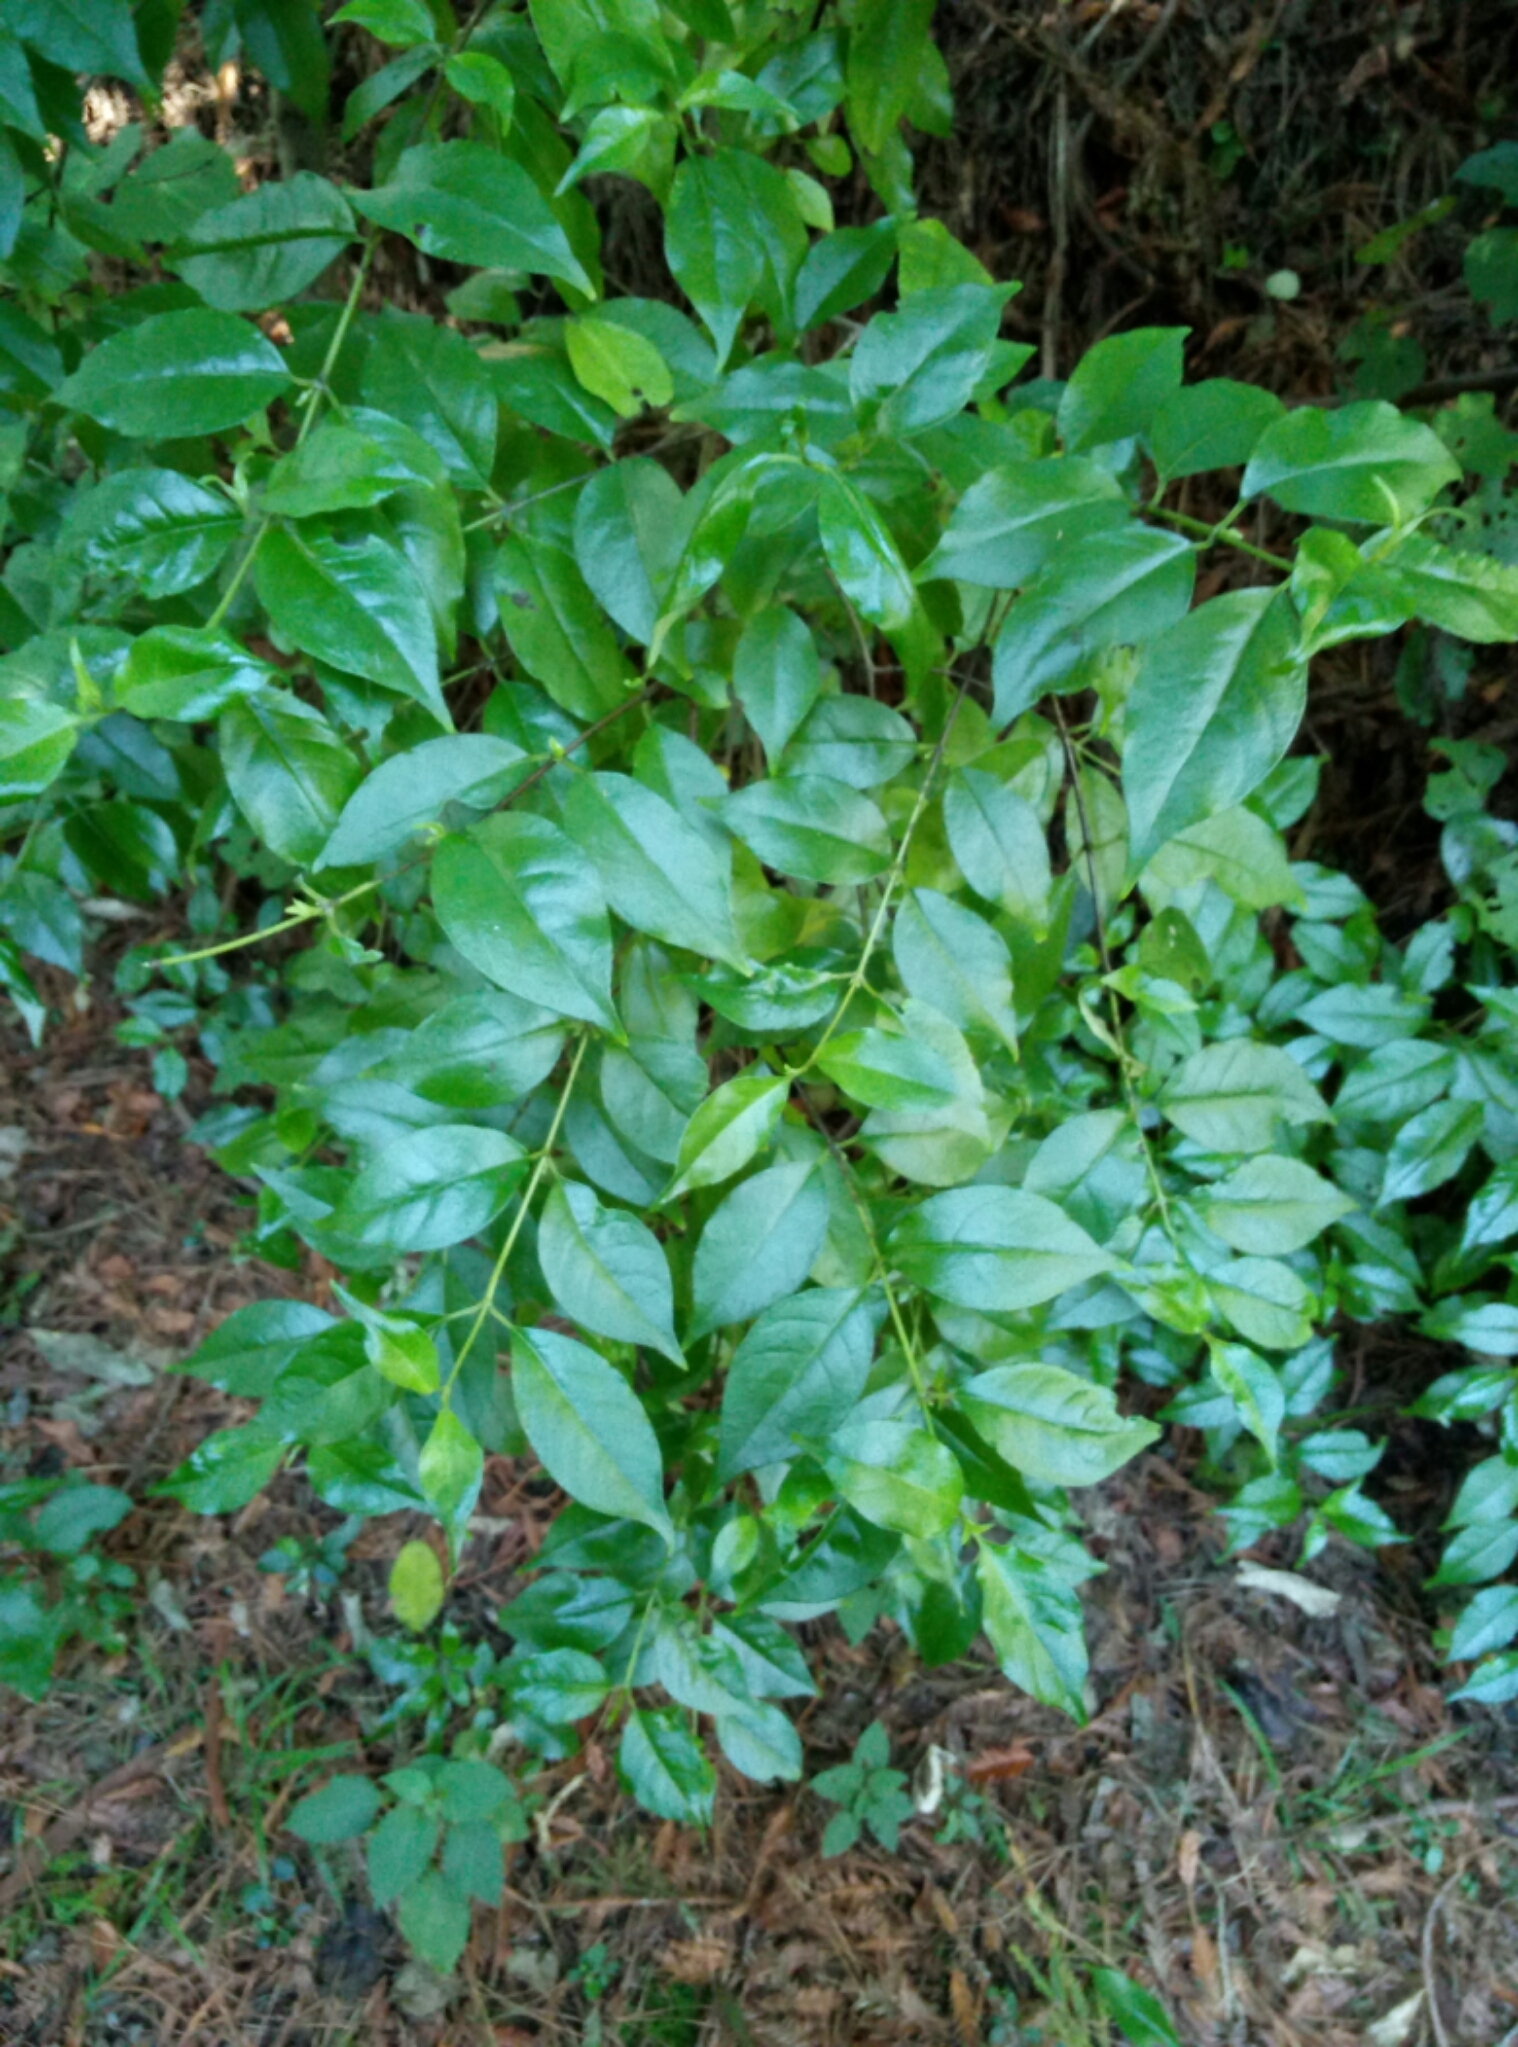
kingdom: Plantae
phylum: Tracheophyta
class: Magnoliopsida
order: Gentianales
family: Loganiaceae
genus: Geniostoma
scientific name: Geniostoma ligustrifolium
